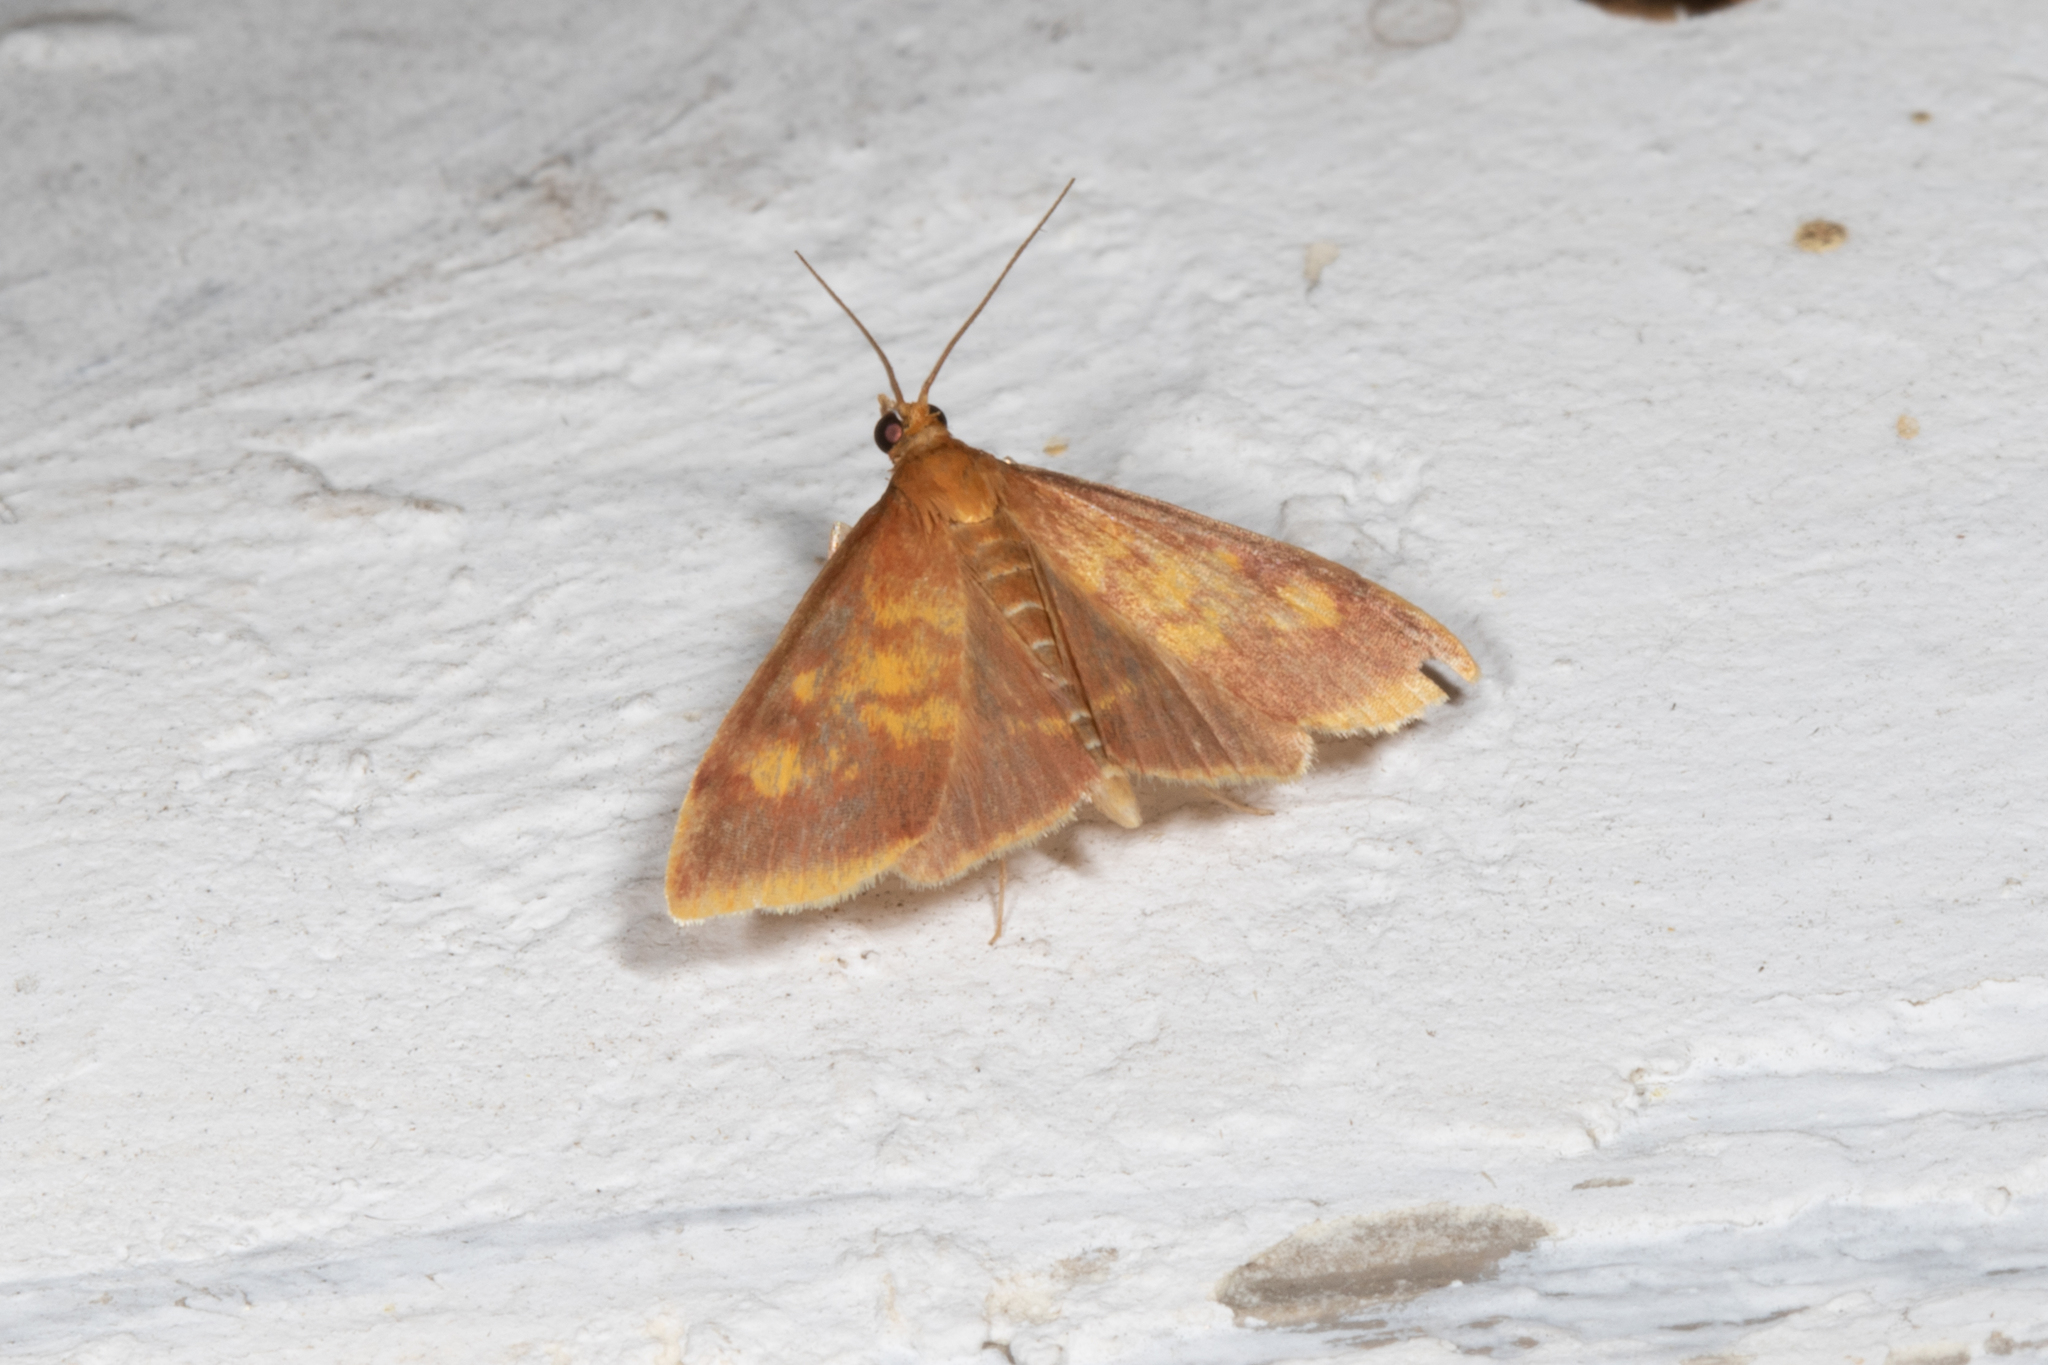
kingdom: Animalia
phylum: Arthropoda
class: Insecta
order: Lepidoptera
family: Crambidae
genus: Pyrausta
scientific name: Pyrausta acrionalis
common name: Mint-loving pyrausta moth
